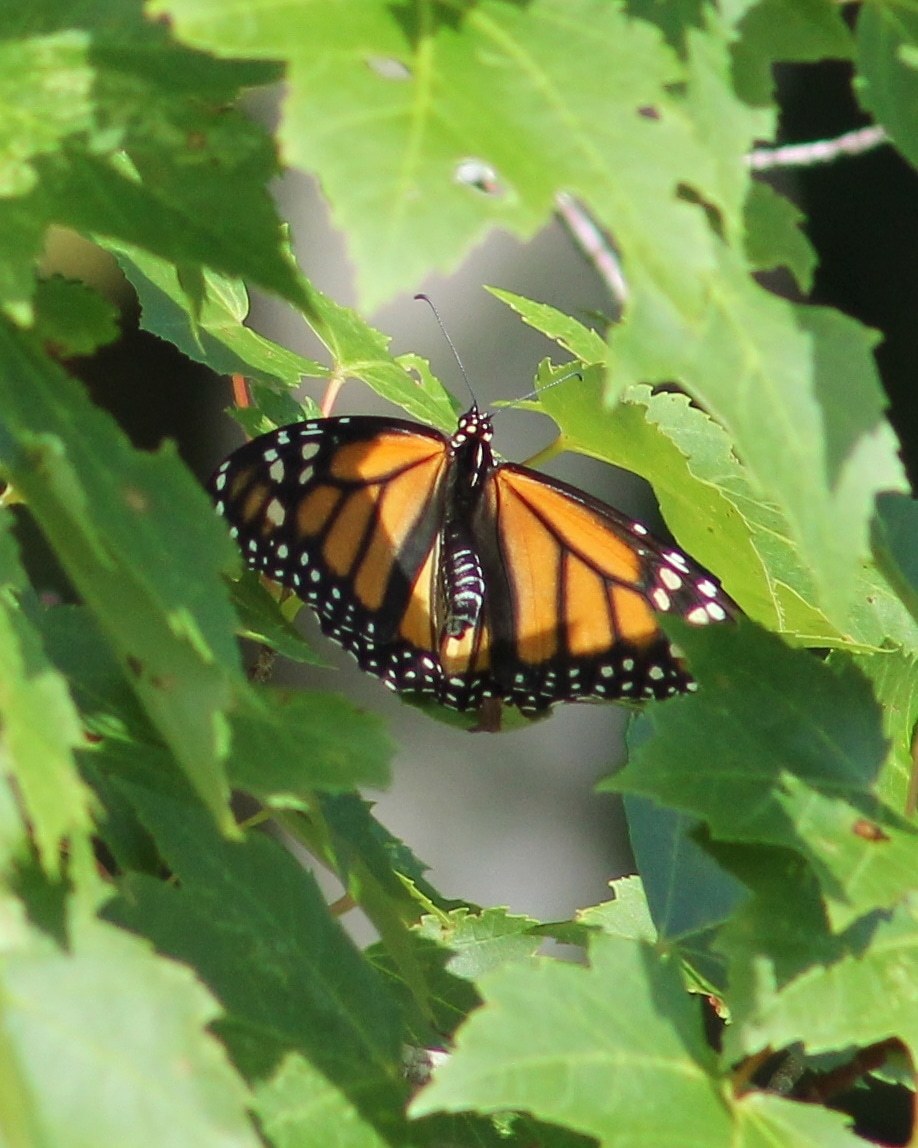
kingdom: Animalia
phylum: Arthropoda
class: Insecta
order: Lepidoptera
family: Nymphalidae
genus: Danaus
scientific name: Danaus plexippus
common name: Monarch
